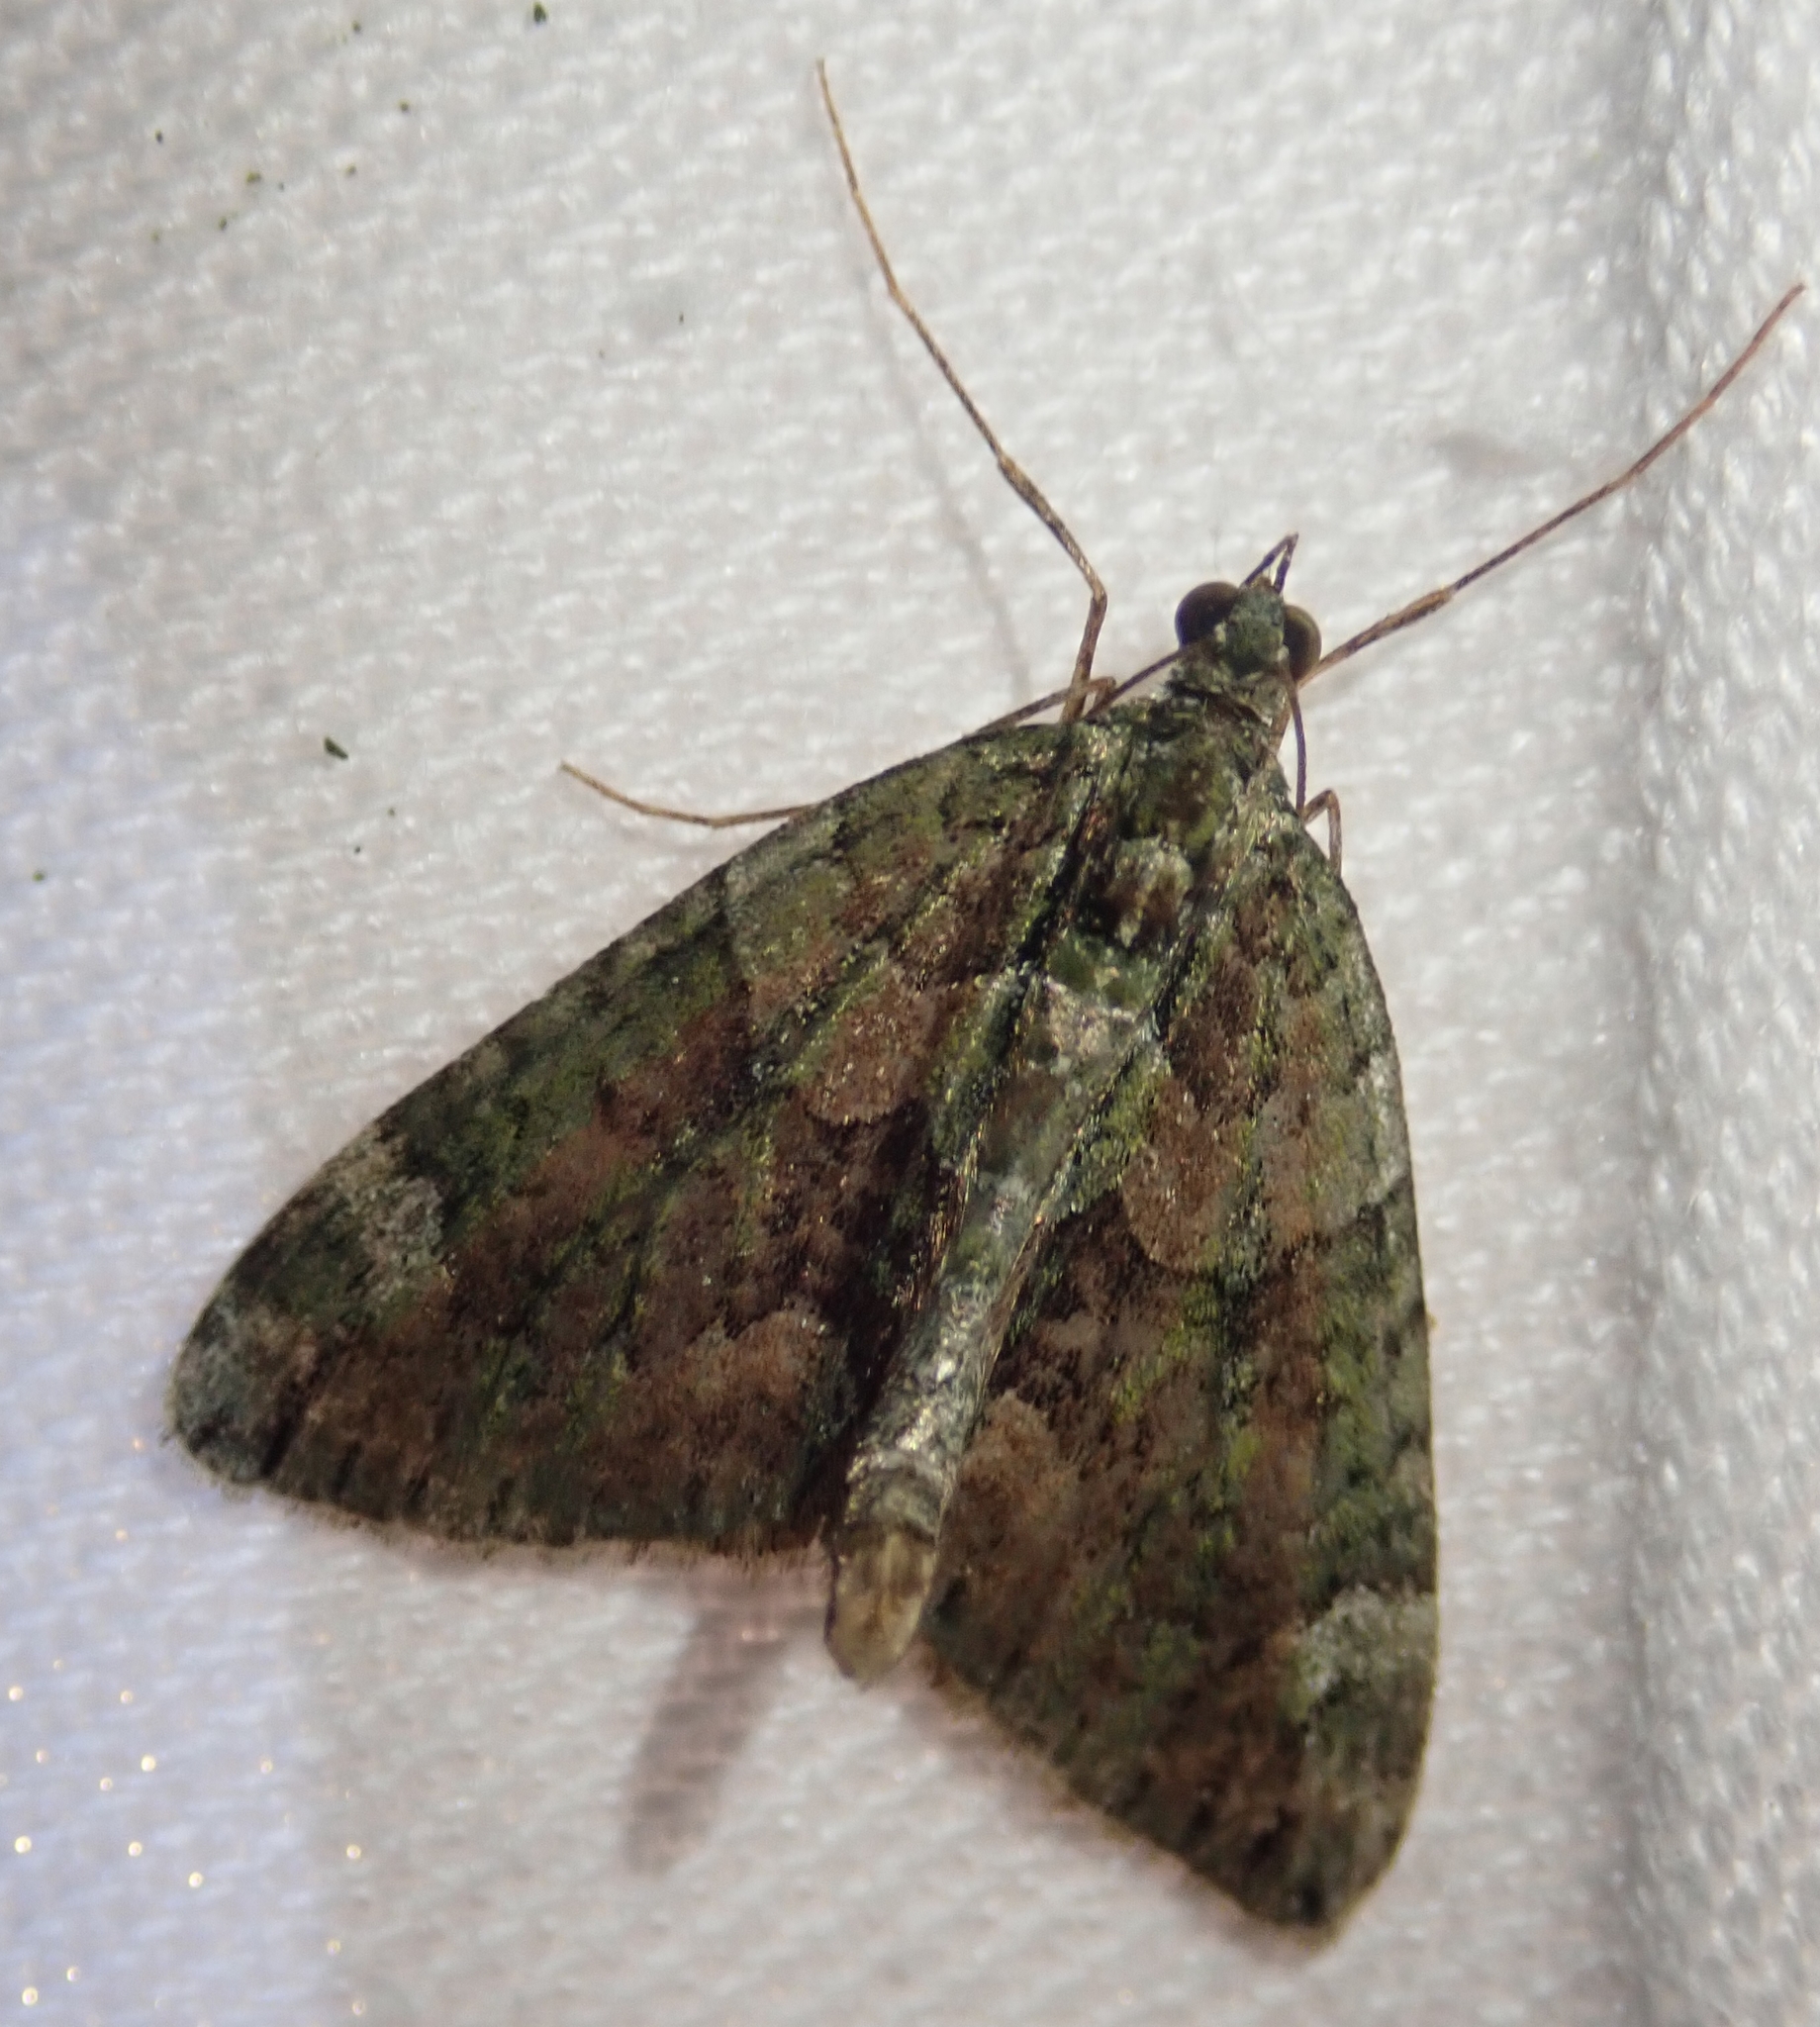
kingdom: Animalia
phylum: Arthropoda
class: Insecta
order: Lepidoptera
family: Geometridae
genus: Chloroclysta
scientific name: Chloroclysta siterata
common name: Red-green carpet
